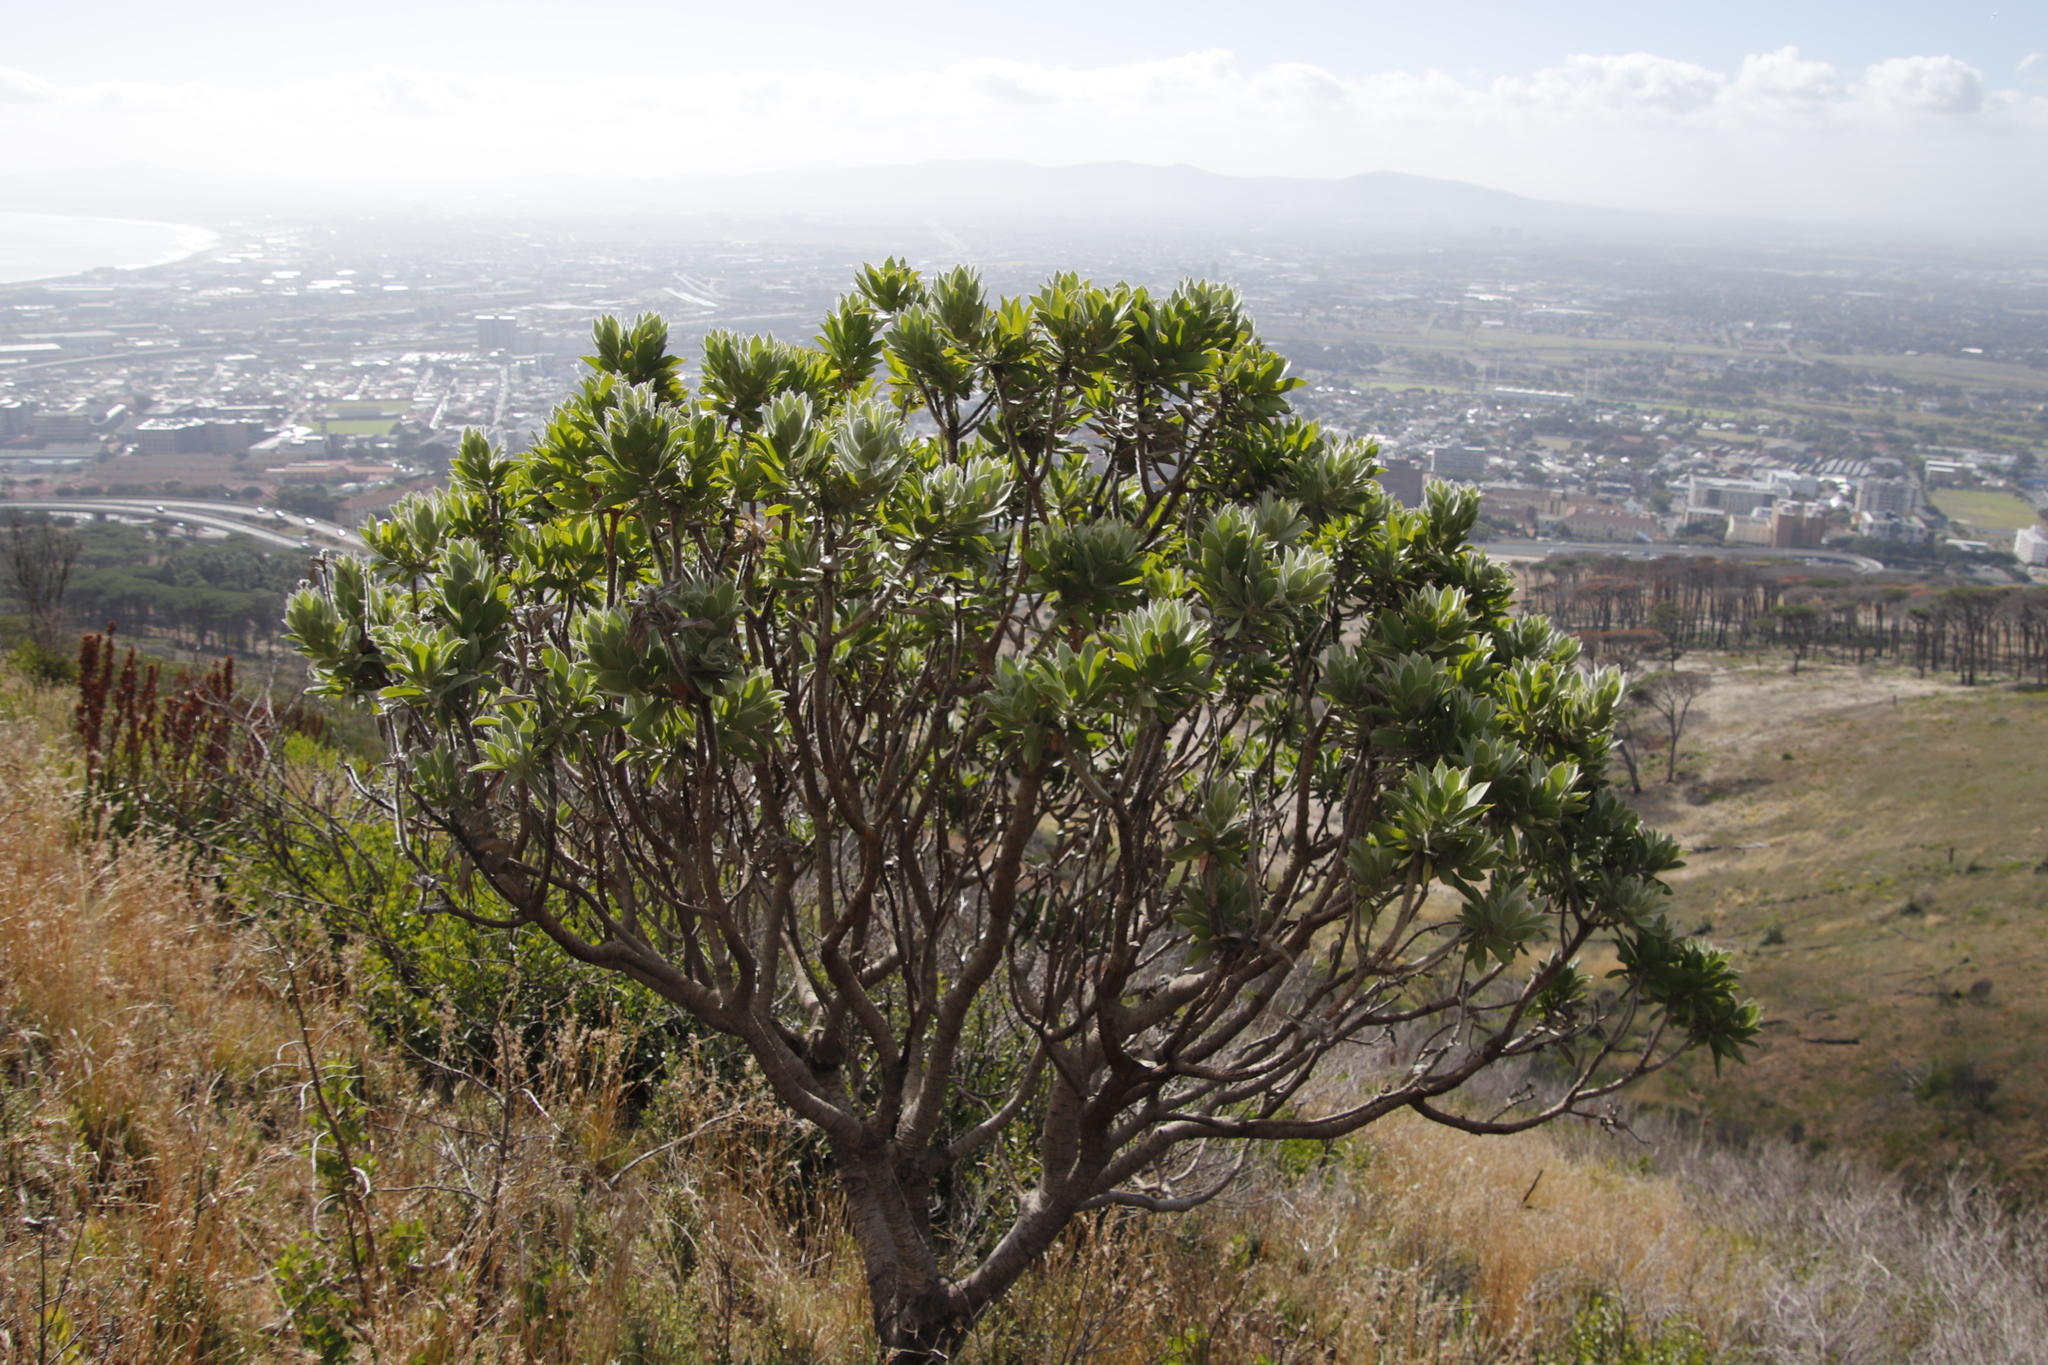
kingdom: Plantae
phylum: Tracheophyta
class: Magnoliopsida
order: Proteales
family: Proteaceae
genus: Leucospermum
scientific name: Leucospermum conocarpodendron
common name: Tree pincushion
